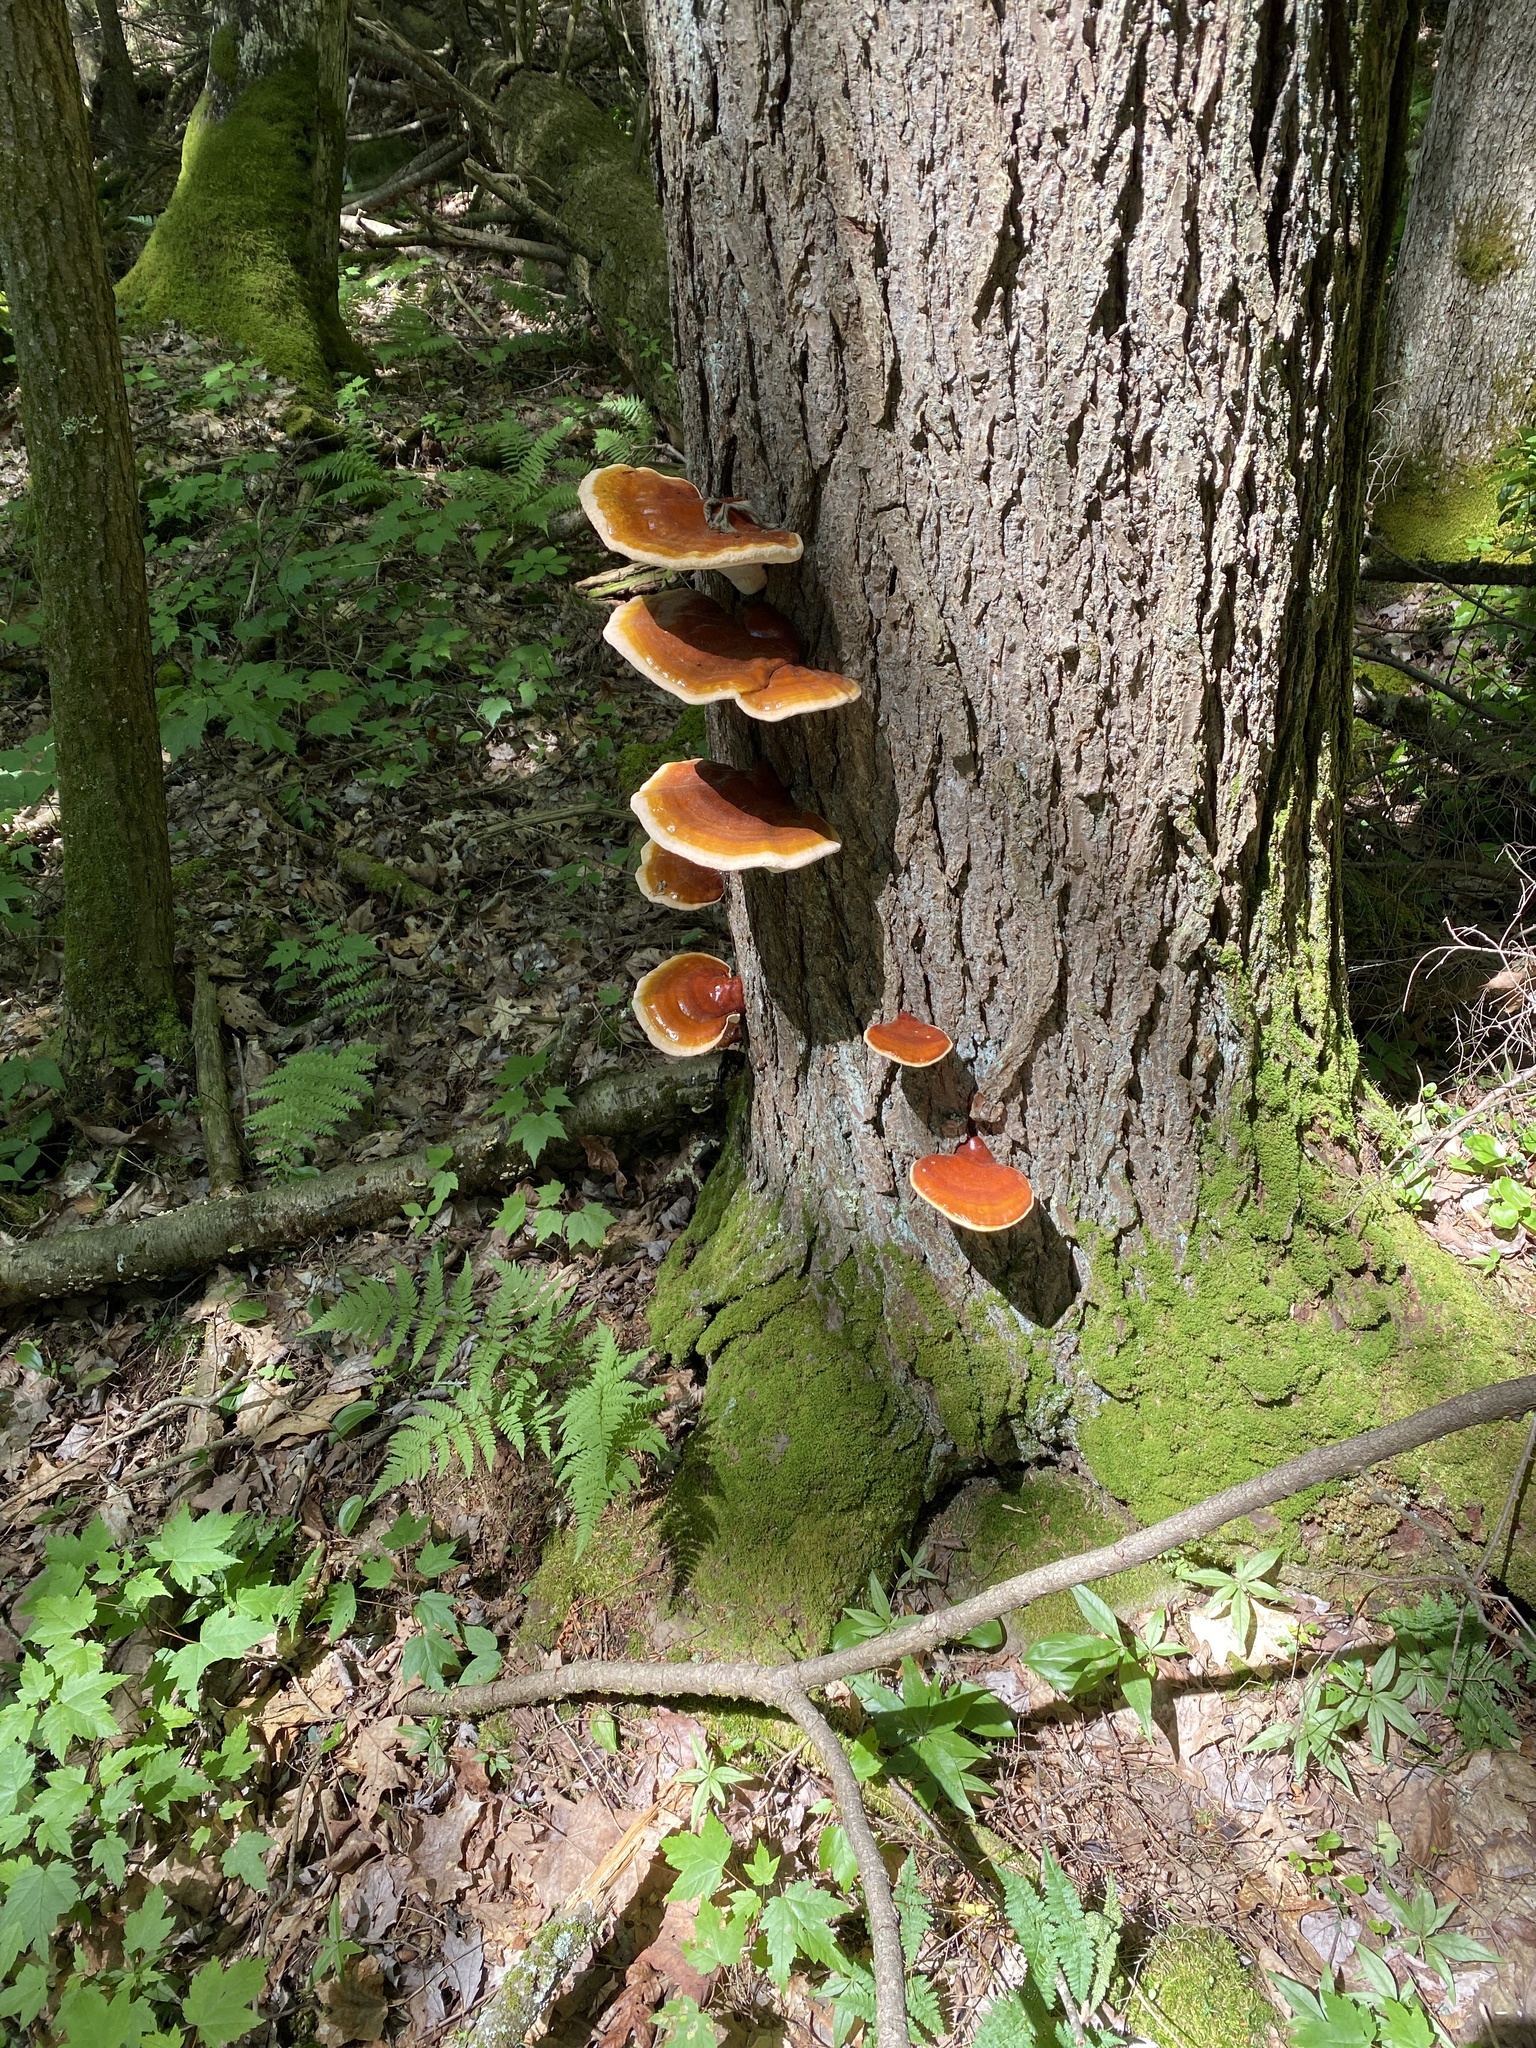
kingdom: Fungi
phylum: Basidiomycota
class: Agaricomycetes
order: Polyporales
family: Polyporaceae
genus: Ganoderma
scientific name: Ganoderma tsugae
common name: Hemlock varnish shelf
